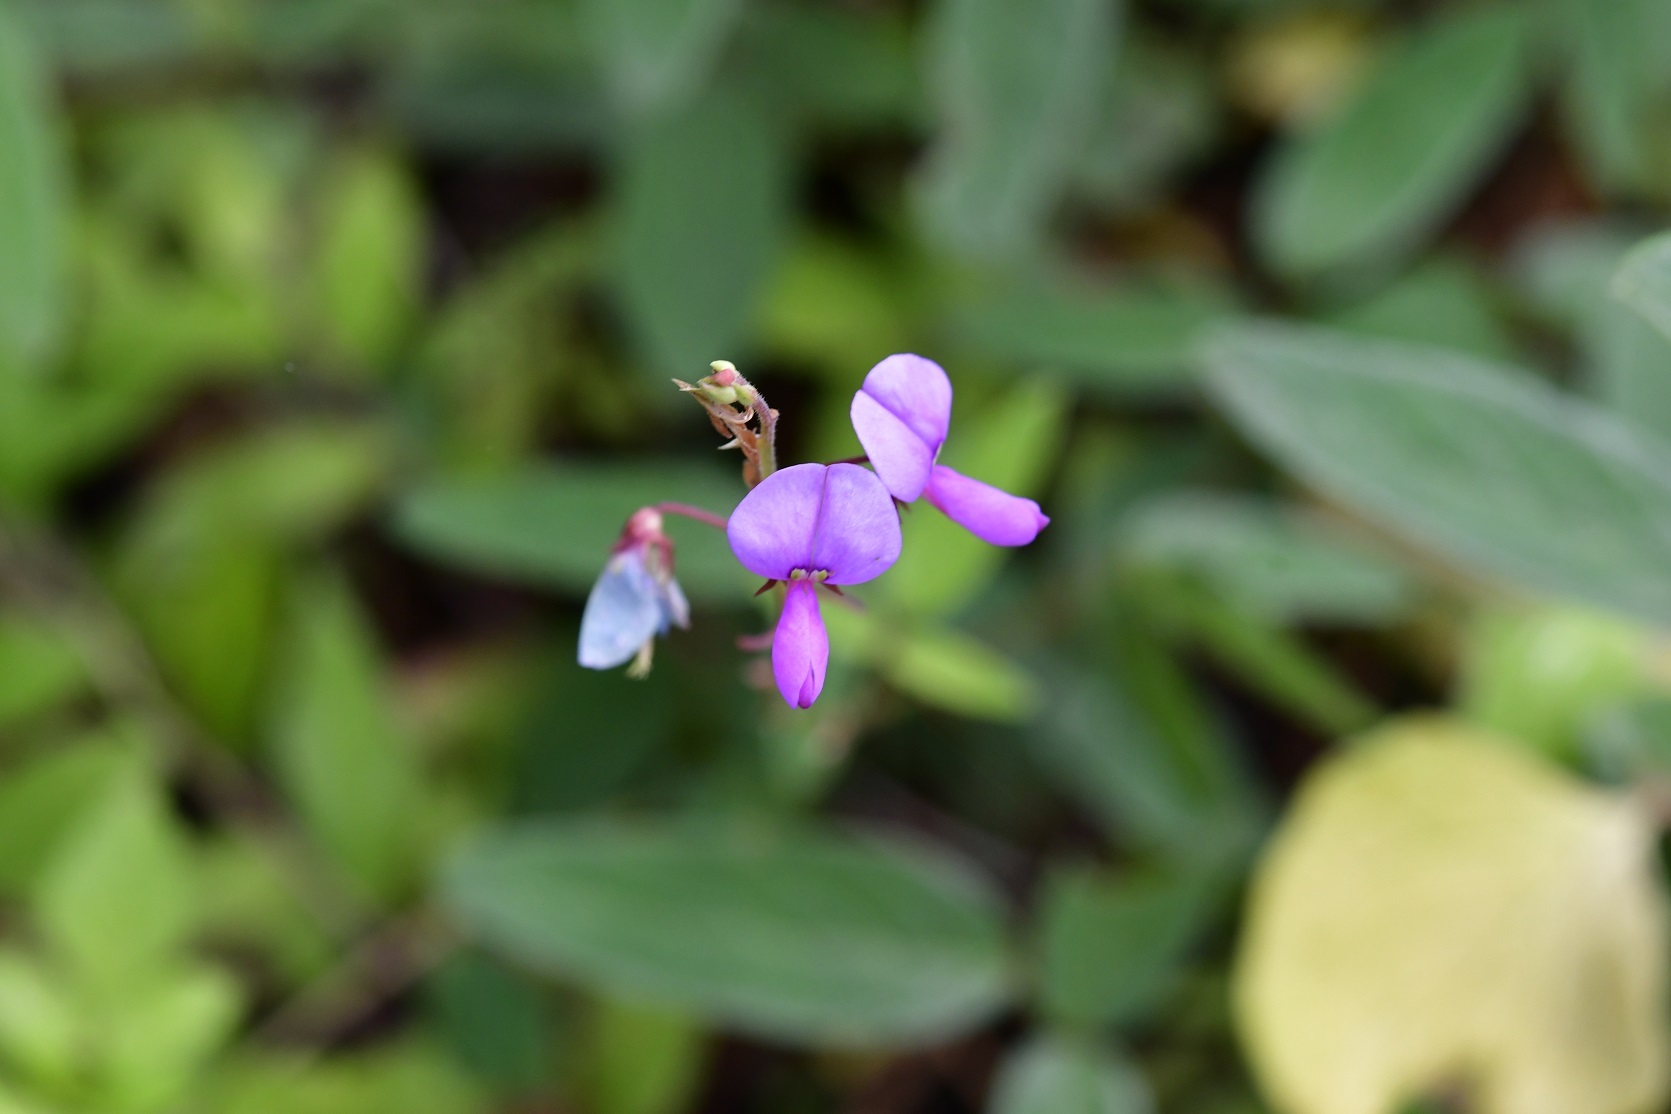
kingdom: Plantae
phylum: Tracheophyta
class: Magnoliopsida
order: Fabales
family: Fabaceae
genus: Desmodium
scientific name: Desmodium
